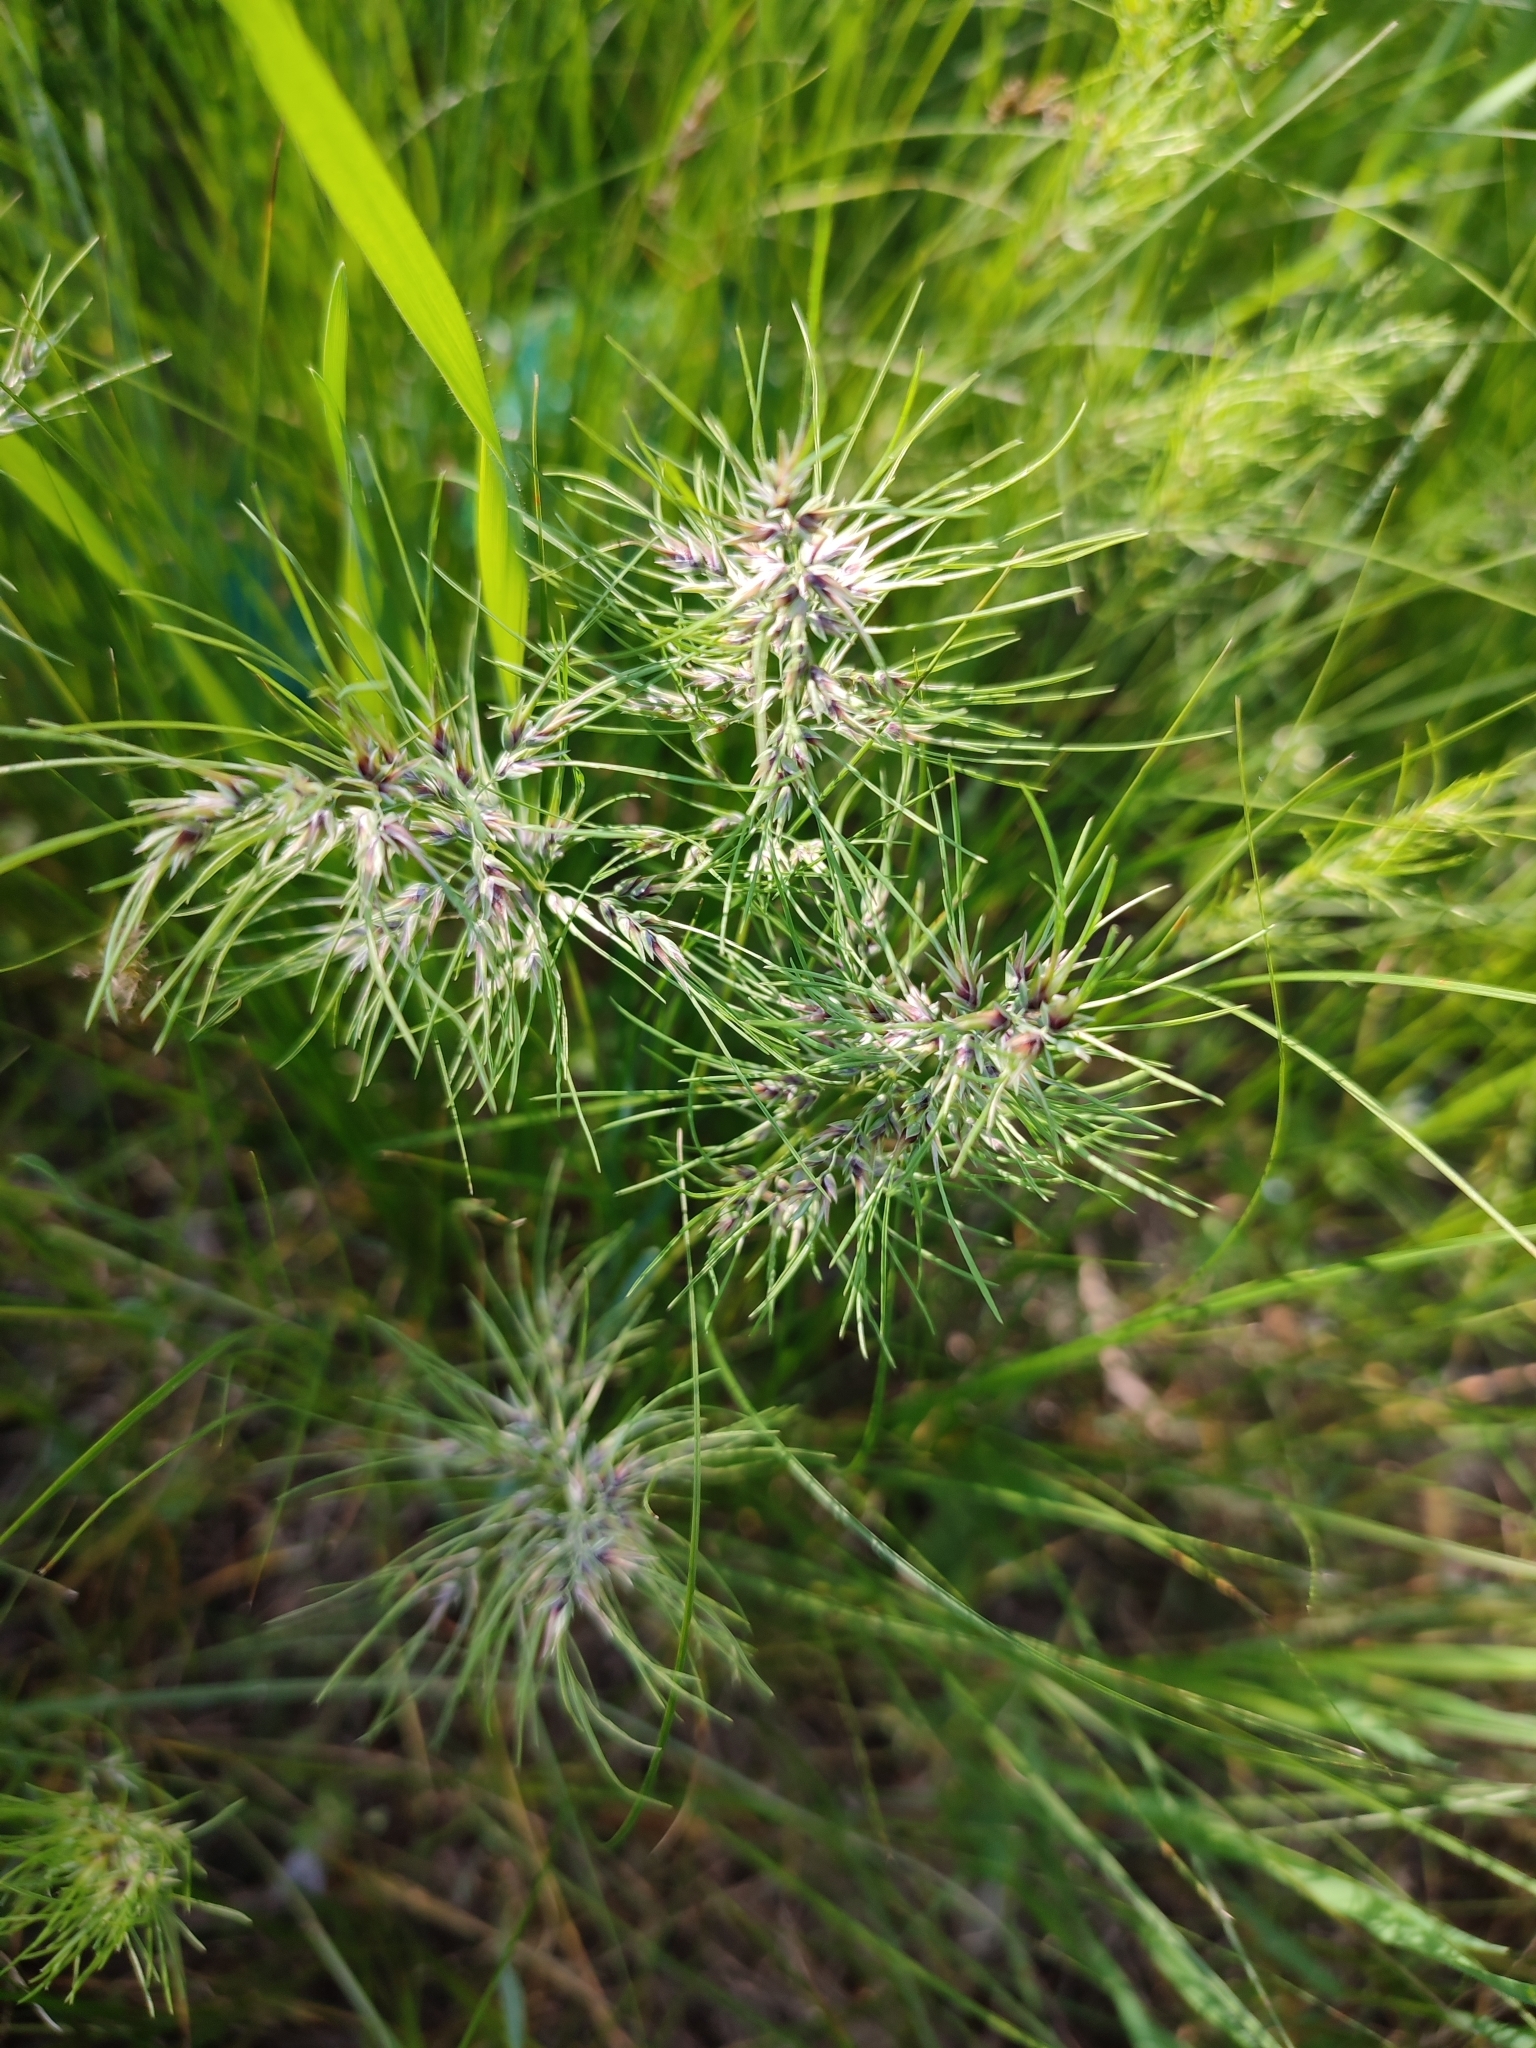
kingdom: Plantae
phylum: Tracheophyta
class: Liliopsida
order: Poales
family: Poaceae
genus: Poa
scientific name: Poa bulbosa
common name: Bulbous bluegrass
